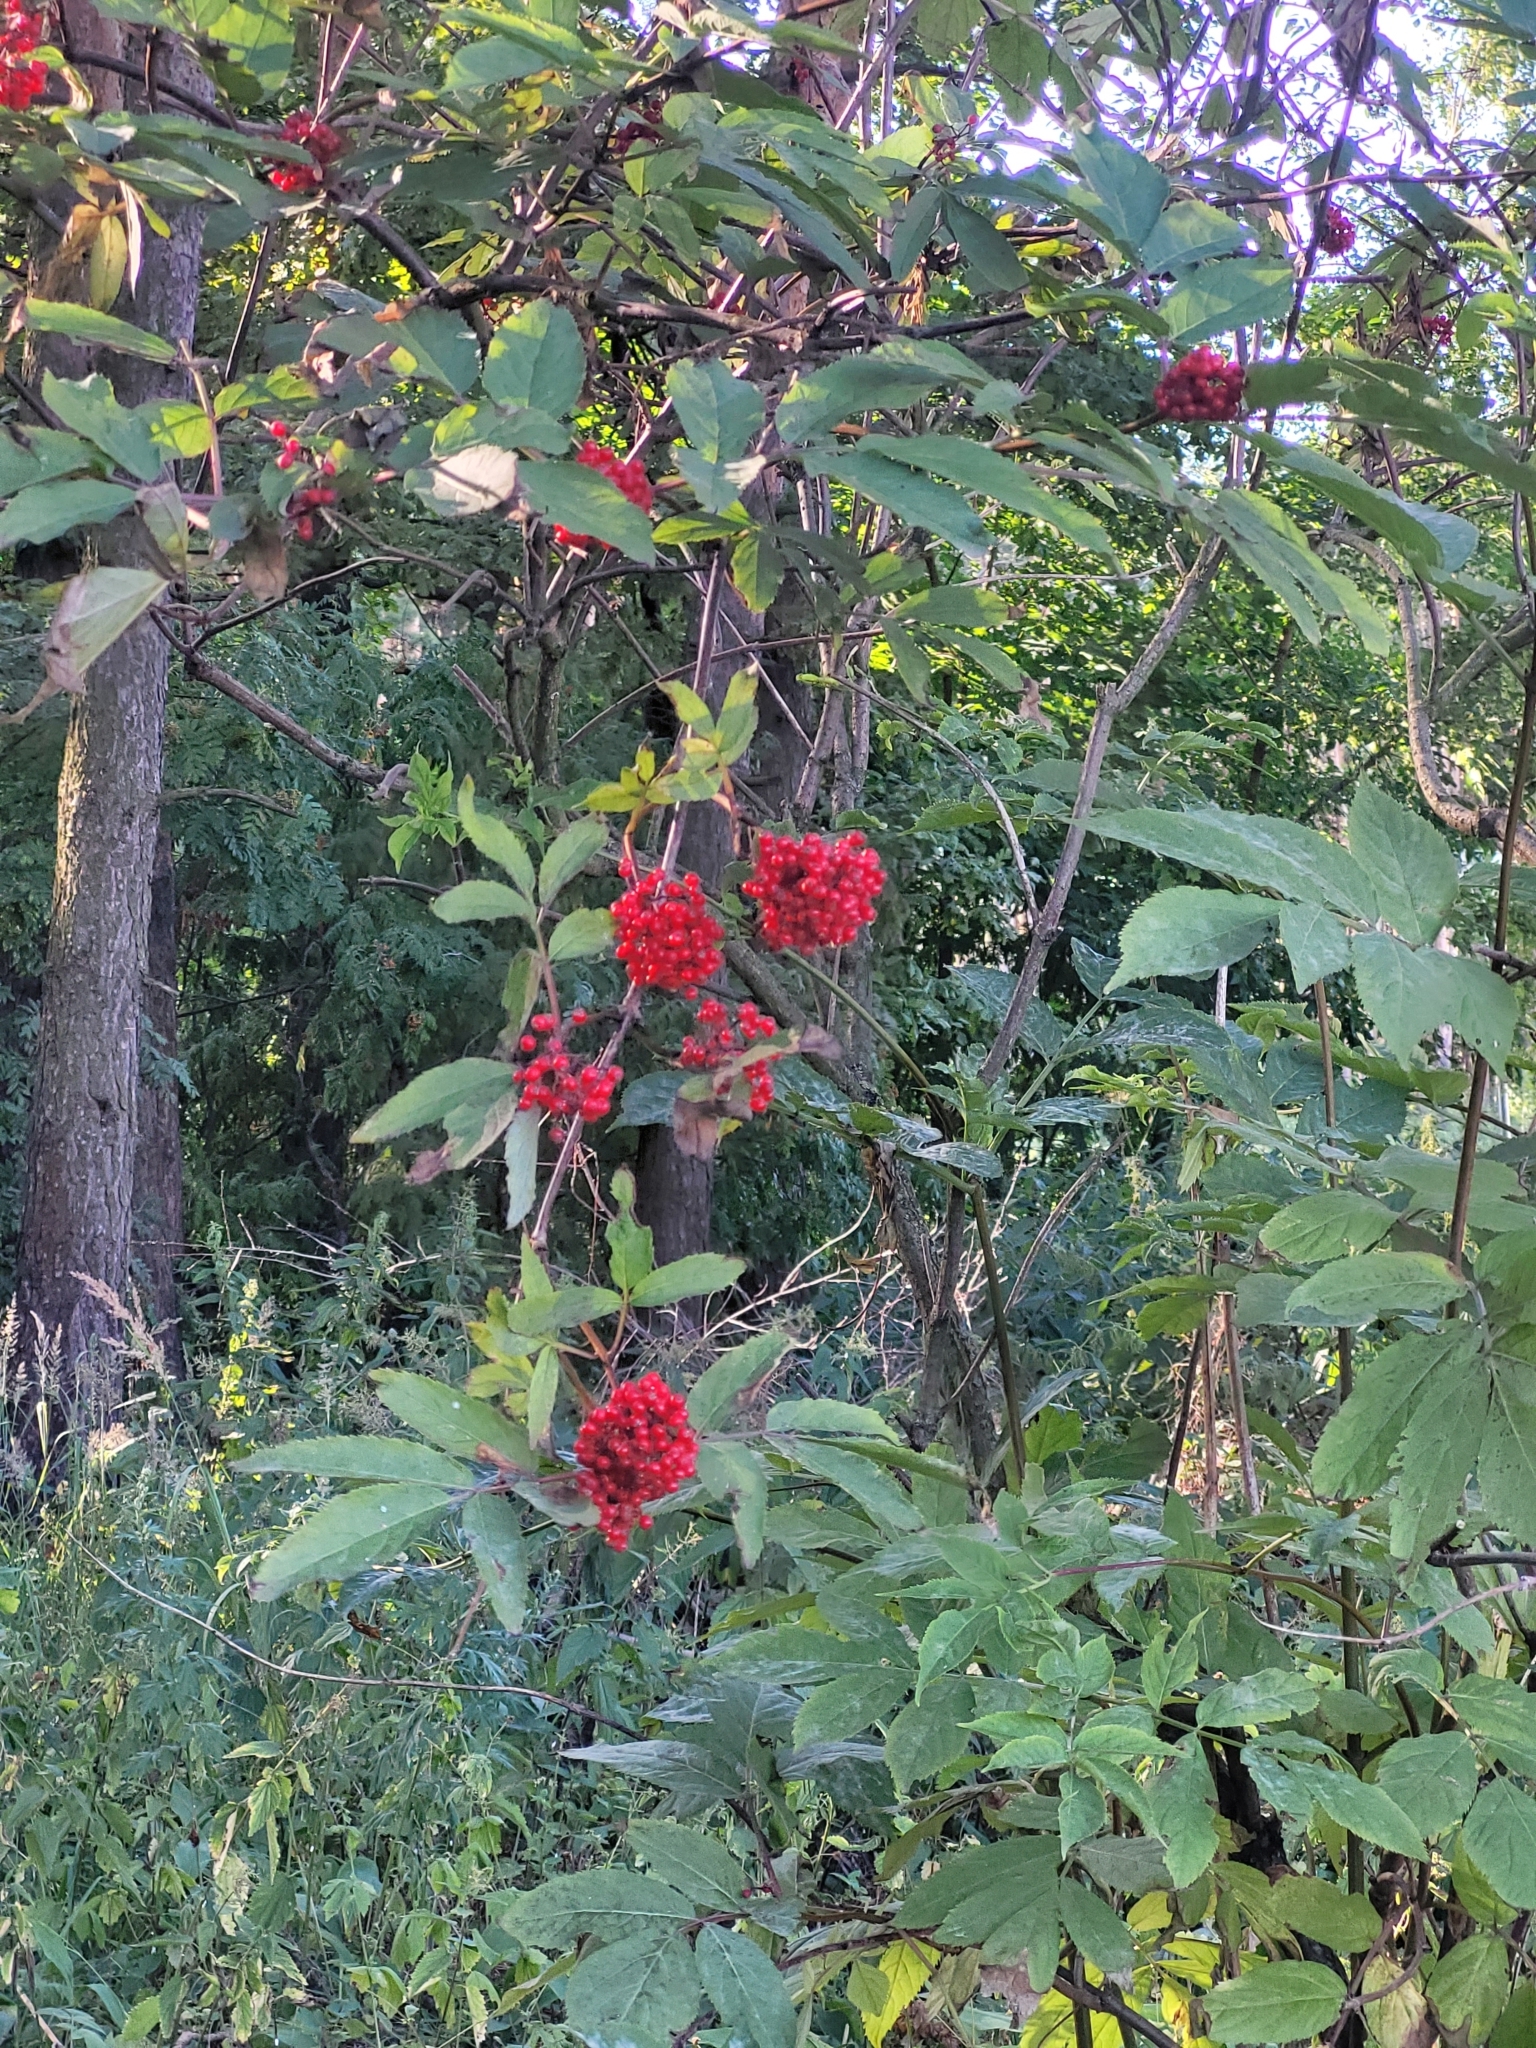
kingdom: Plantae
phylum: Tracheophyta
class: Magnoliopsida
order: Dipsacales
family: Viburnaceae
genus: Sambucus
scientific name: Sambucus racemosa
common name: Red-berried elder
